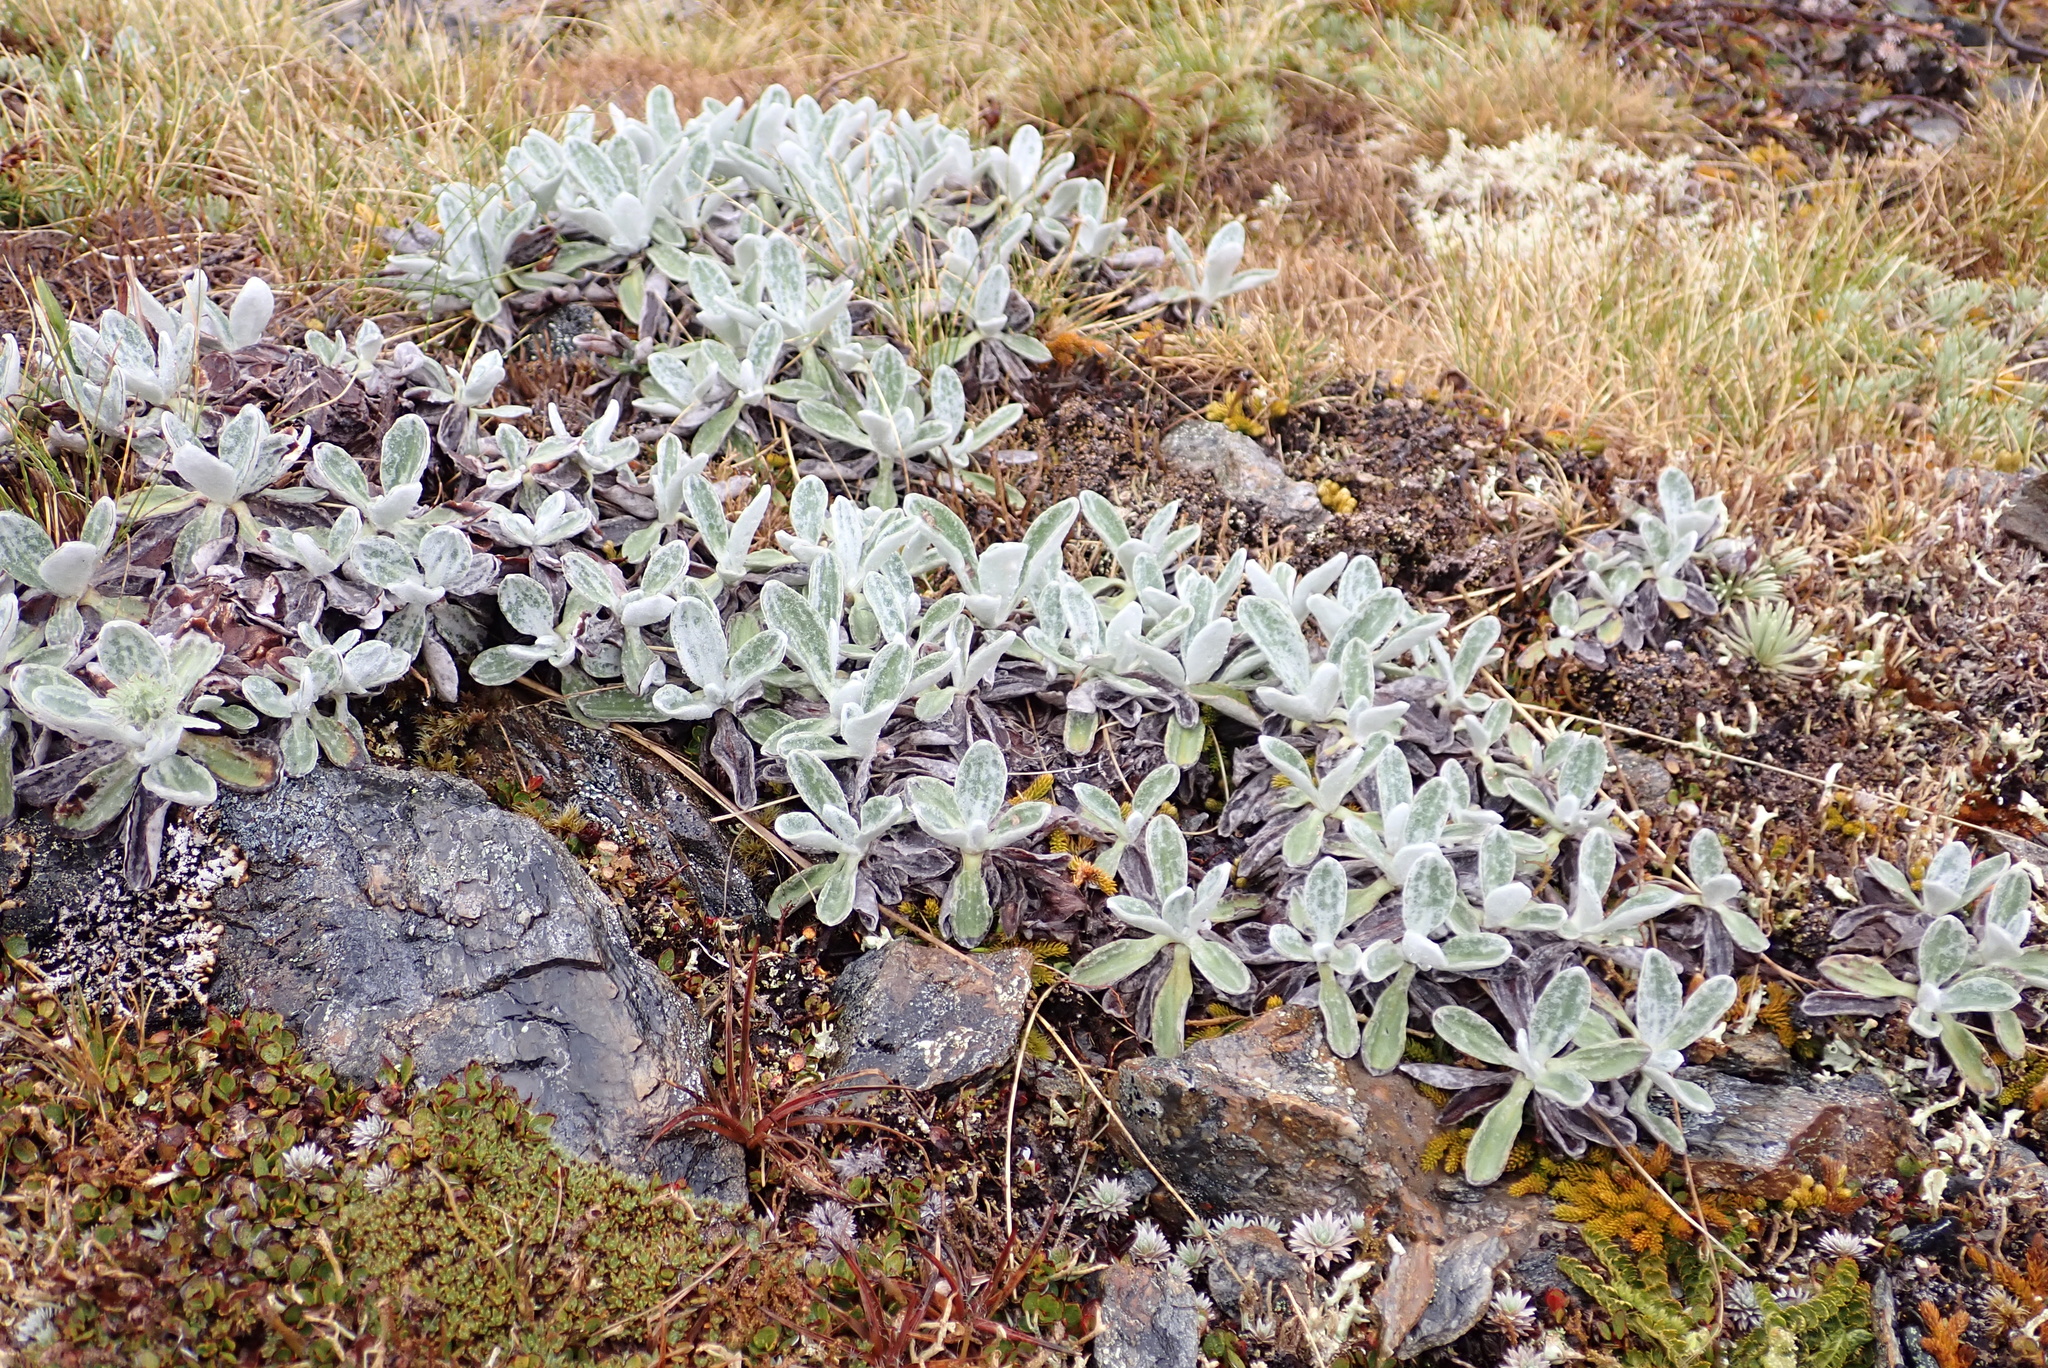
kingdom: Plantae
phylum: Tracheophyta
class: Magnoliopsida
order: Asterales
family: Asteraceae
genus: Celmisia
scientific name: Celmisia allanii
